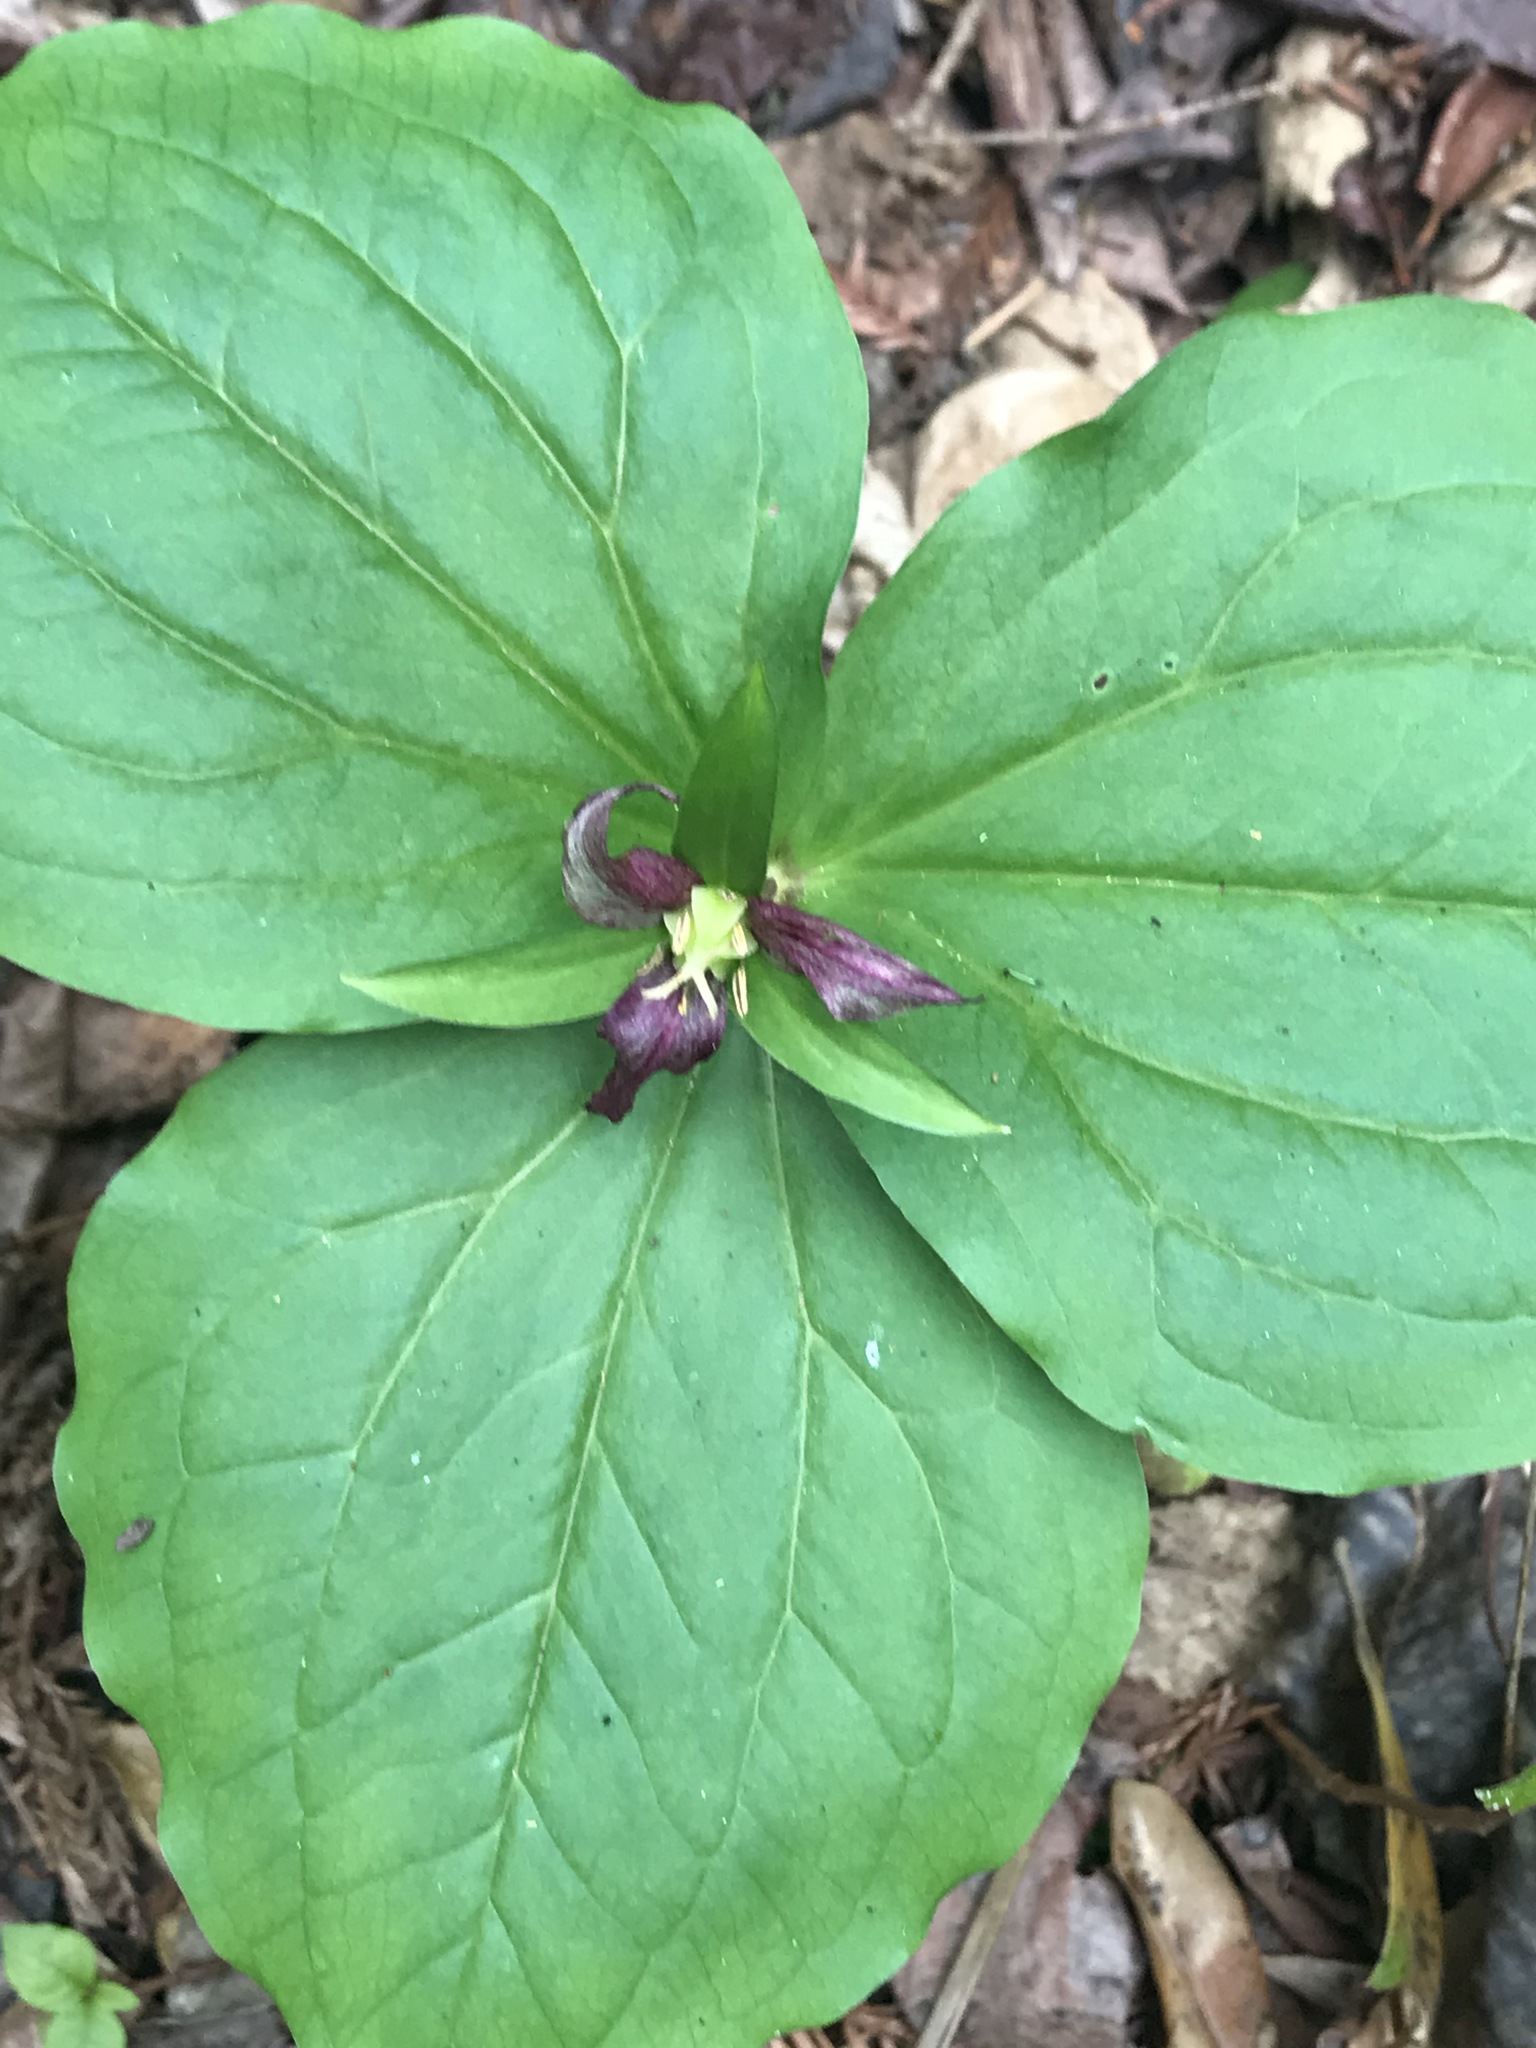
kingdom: Plantae
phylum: Tracheophyta
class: Liliopsida
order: Liliales
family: Melanthiaceae
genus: Trillium
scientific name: Trillium ovatum
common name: Pacific trillium
